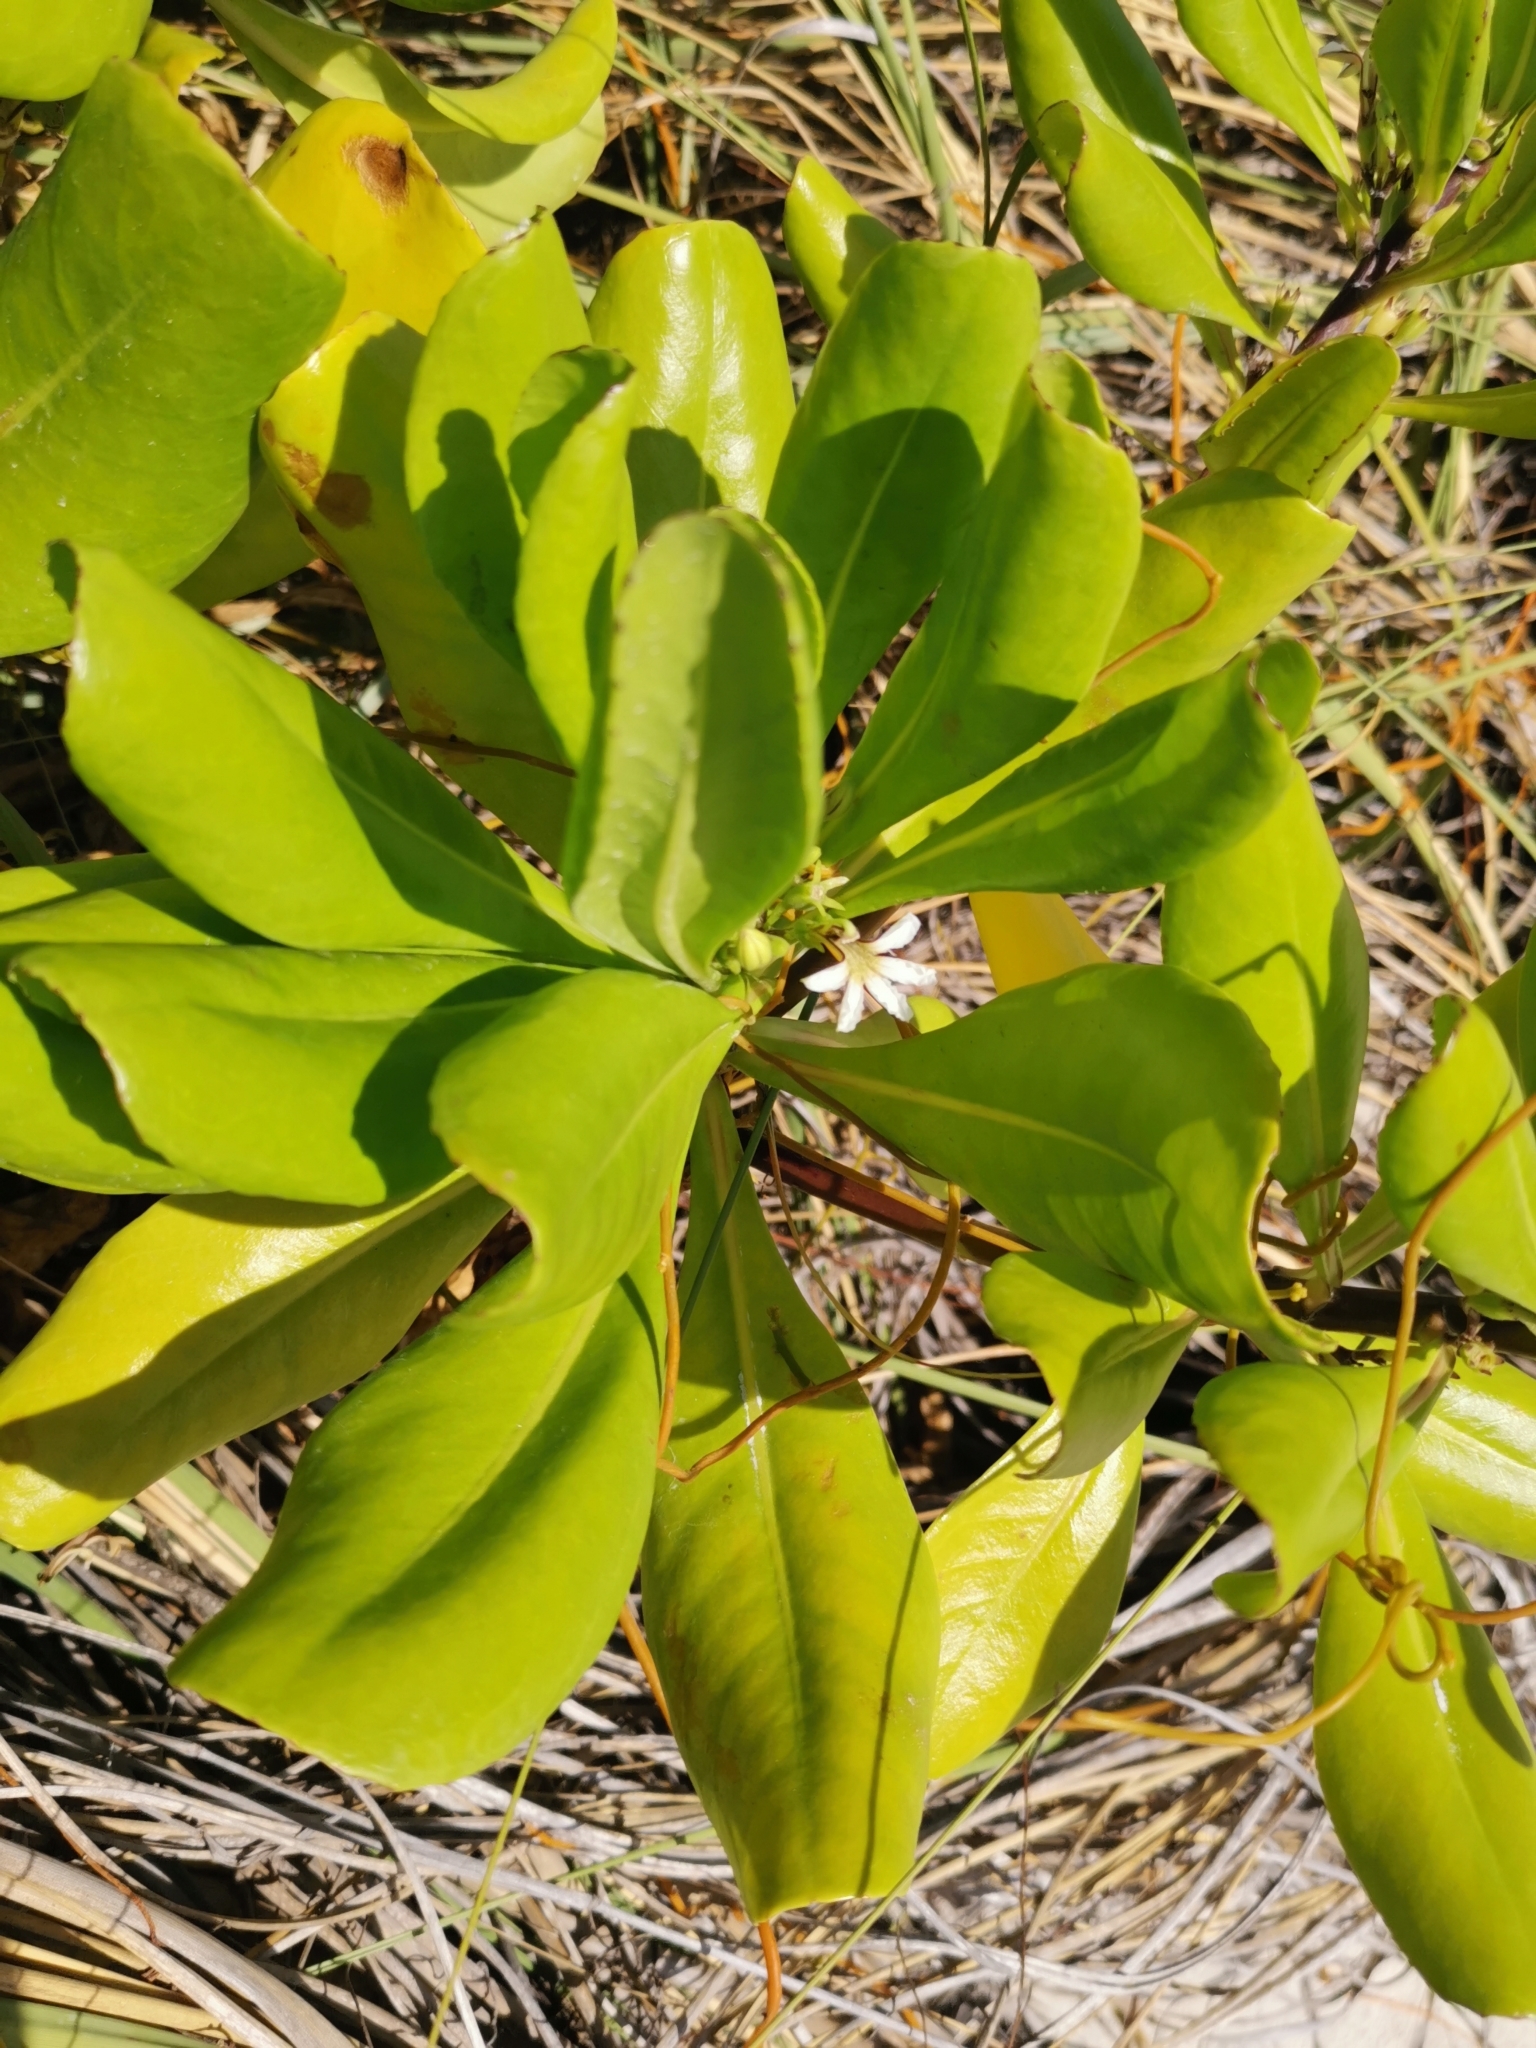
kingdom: Plantae
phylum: Tracheophyta
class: Magnoliopsida
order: Asterales
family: Goodeniaceae
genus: Scaevola
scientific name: Scaevola taccada
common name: Sea lettucetree
